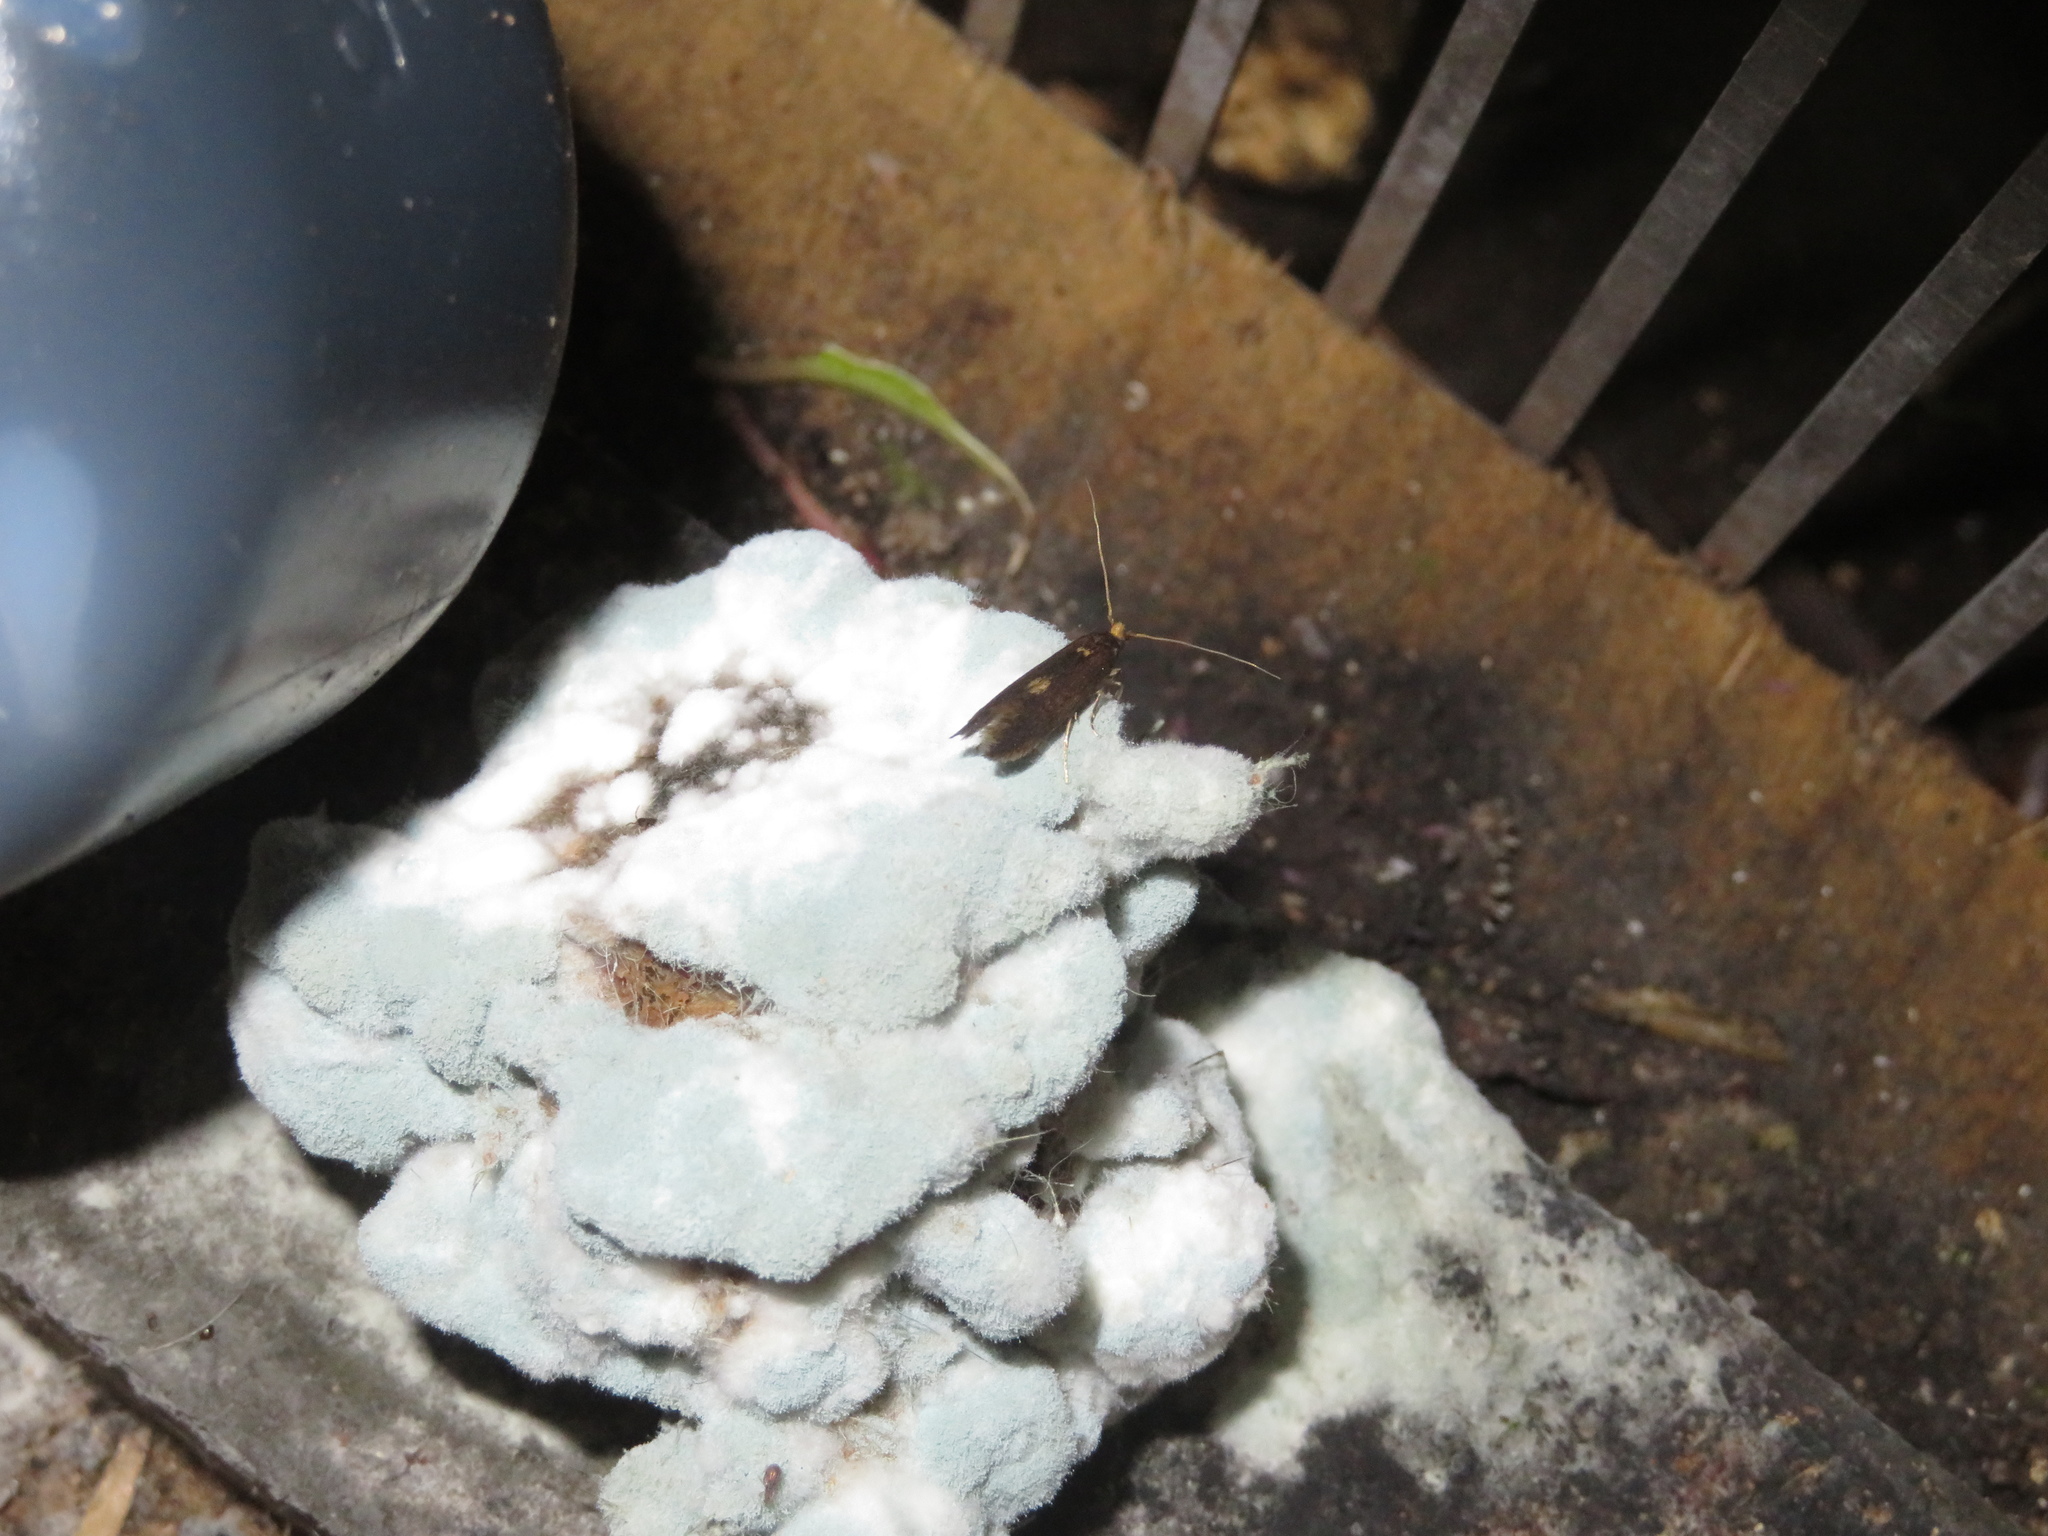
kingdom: Animalia
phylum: Arthropoda
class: Insecta
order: Lepidoptera
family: Tineidae
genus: Opogona
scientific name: Opogona omoscopa
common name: Moth
